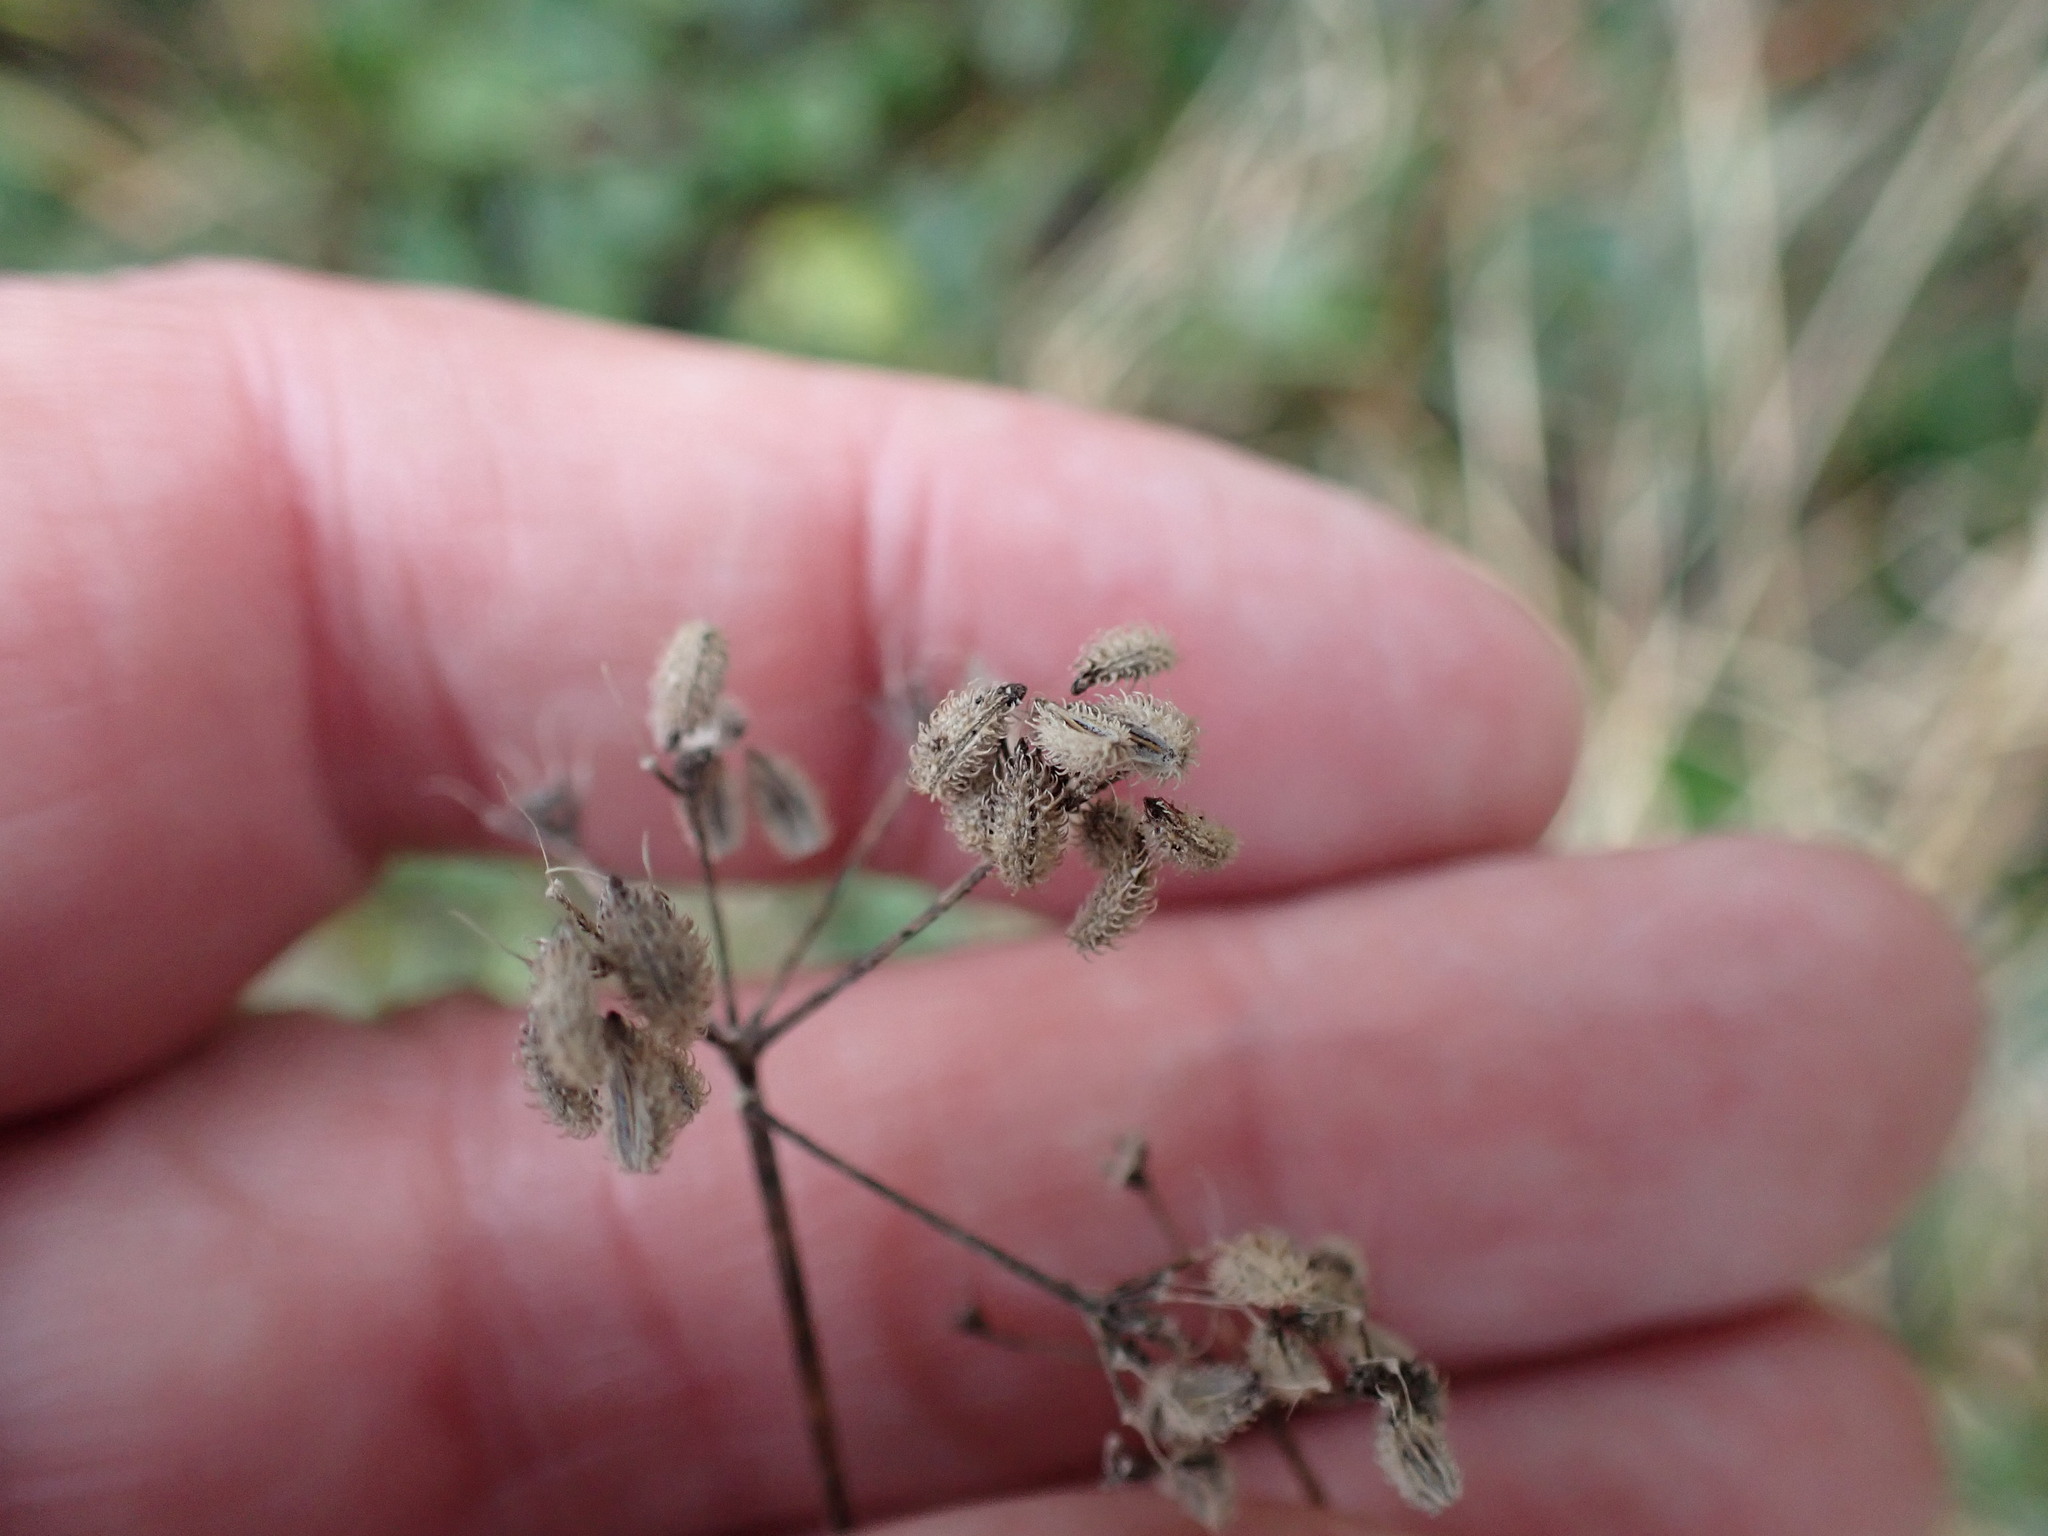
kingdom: Plantae
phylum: Tracheophyta
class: Magnoliopsida
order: Apiales
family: Apiaceae
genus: Torilis
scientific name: Torilis japonica
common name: Upright hedge-parsley
